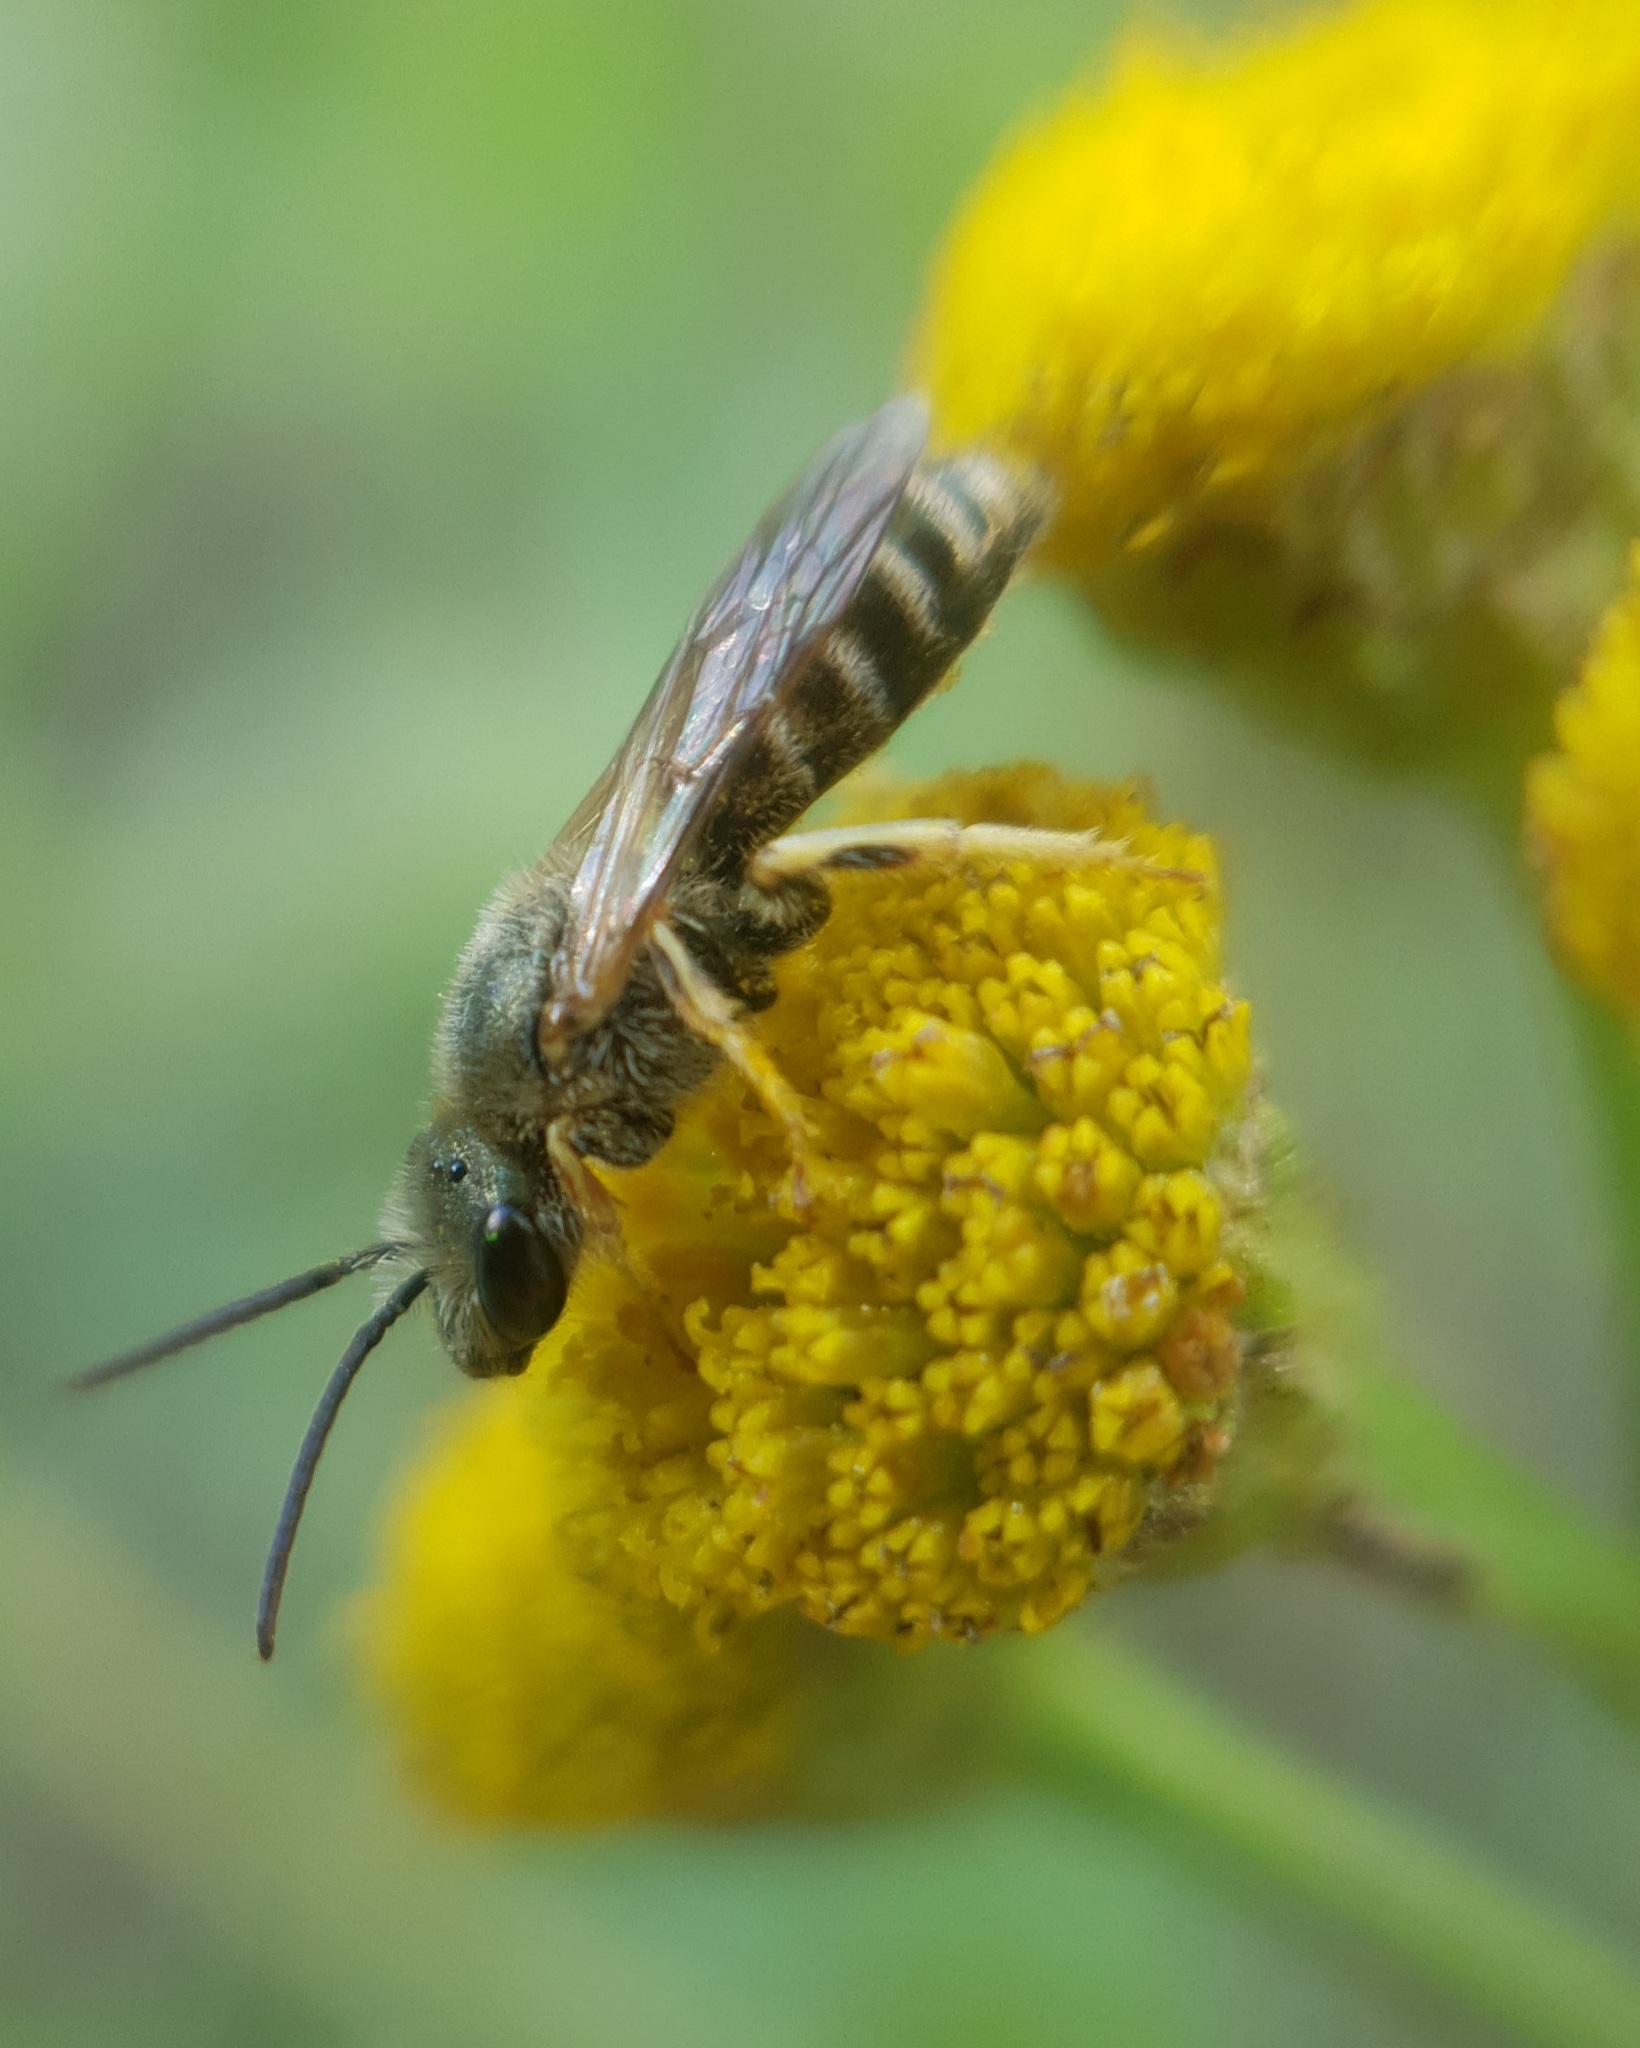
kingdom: Animalia
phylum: Arthropoda
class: Insecta
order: Hymenoptera
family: Halictidae
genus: Halictus
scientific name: Halictus subauratus
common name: Golden furrow bee
